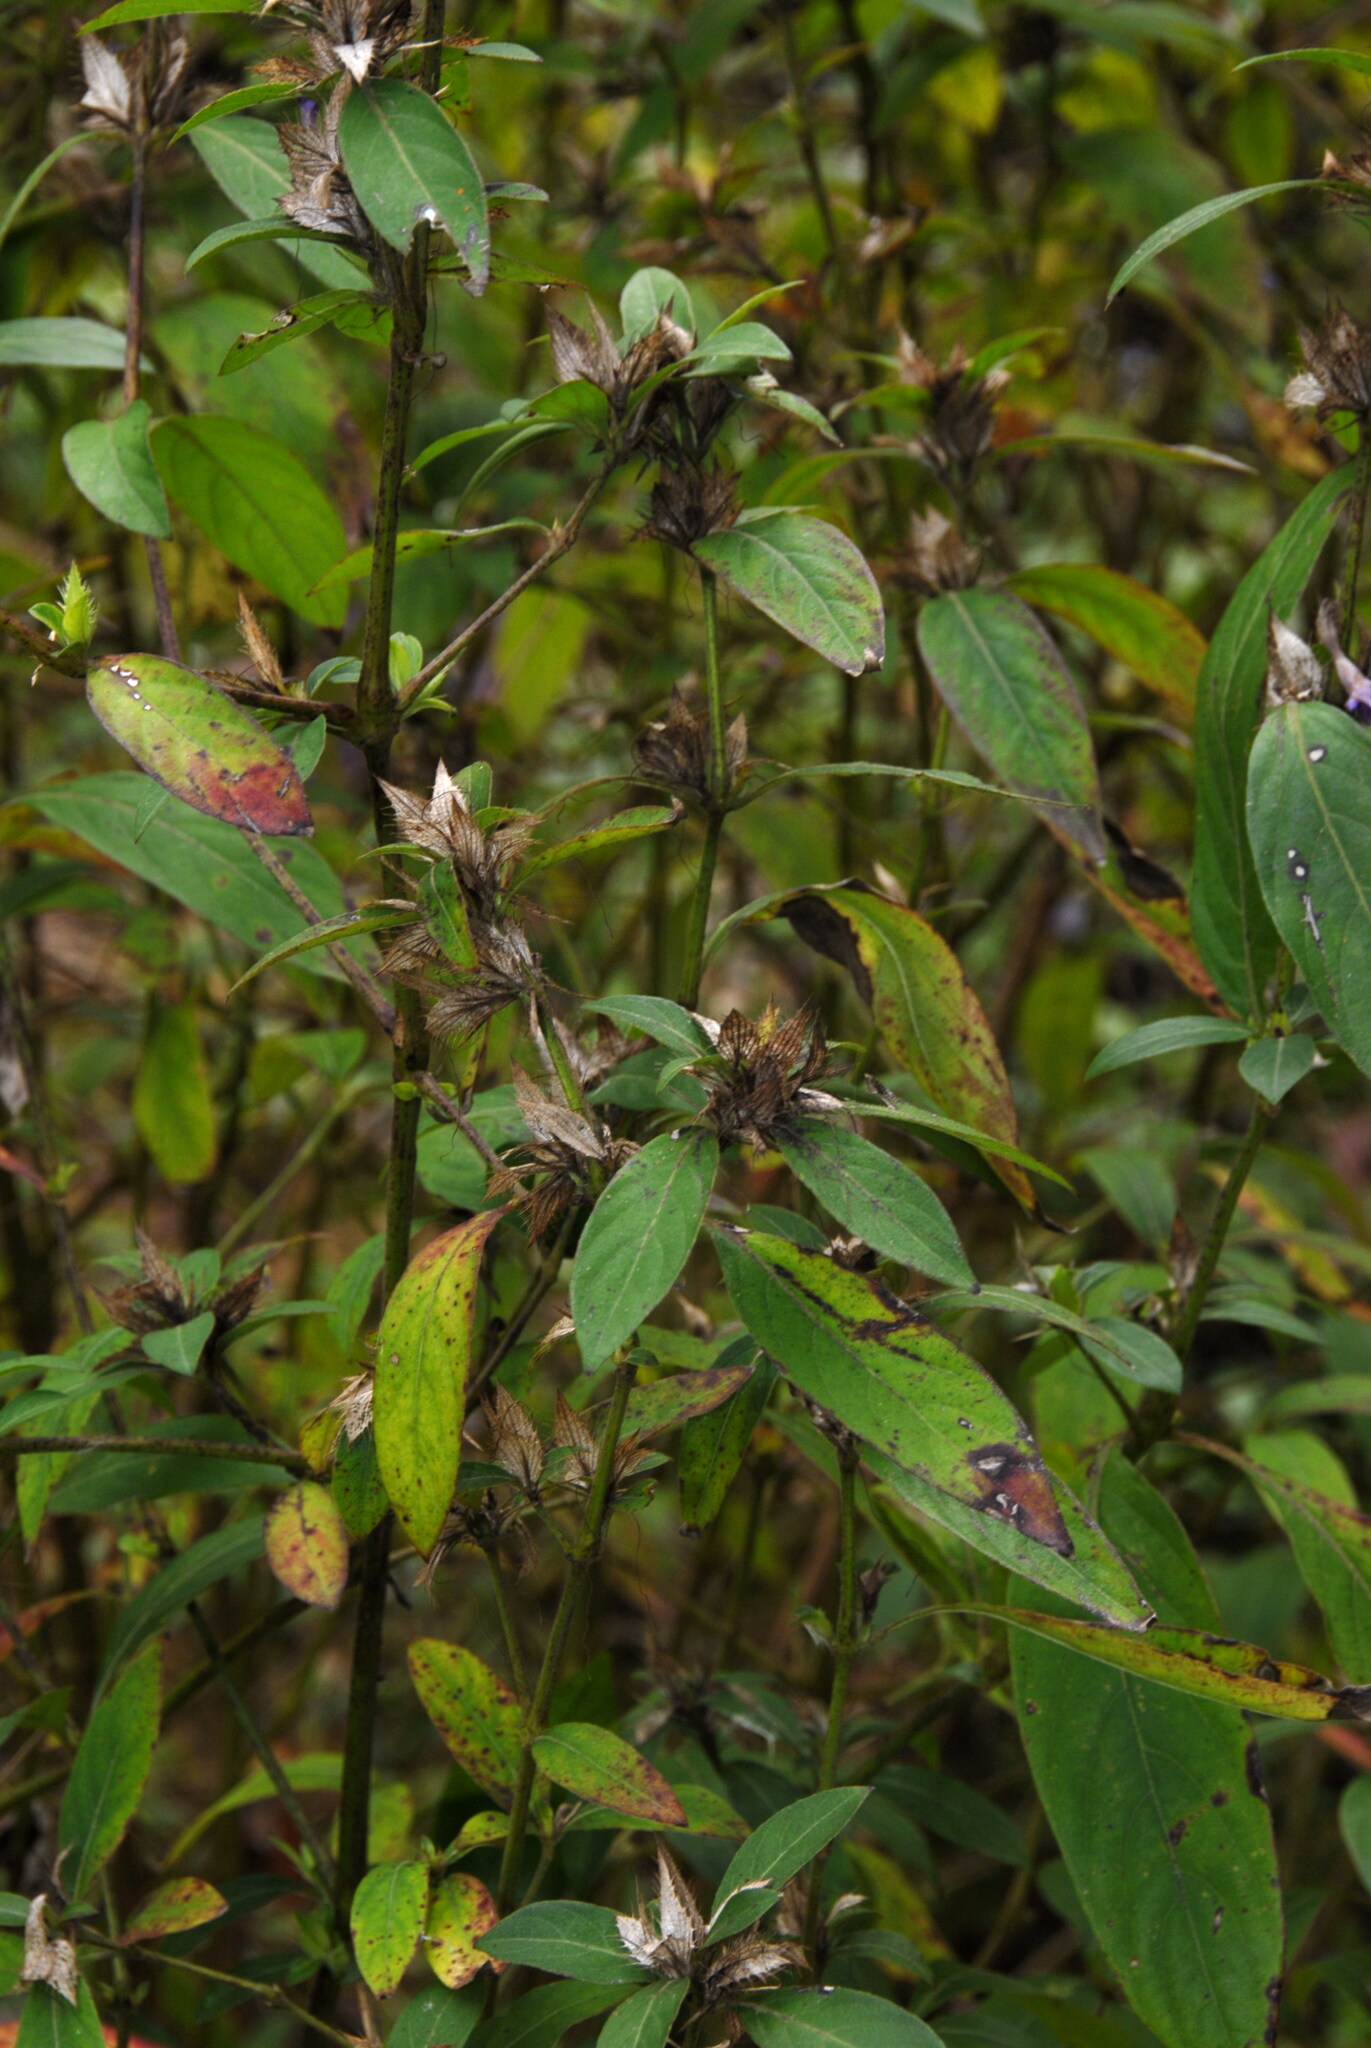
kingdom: Plantae
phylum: Tracheophyta
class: Magnoliopsida
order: Lamiales
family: Acanthaceae
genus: Barleria
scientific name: Barleria cristata
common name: Crested philippine violet
